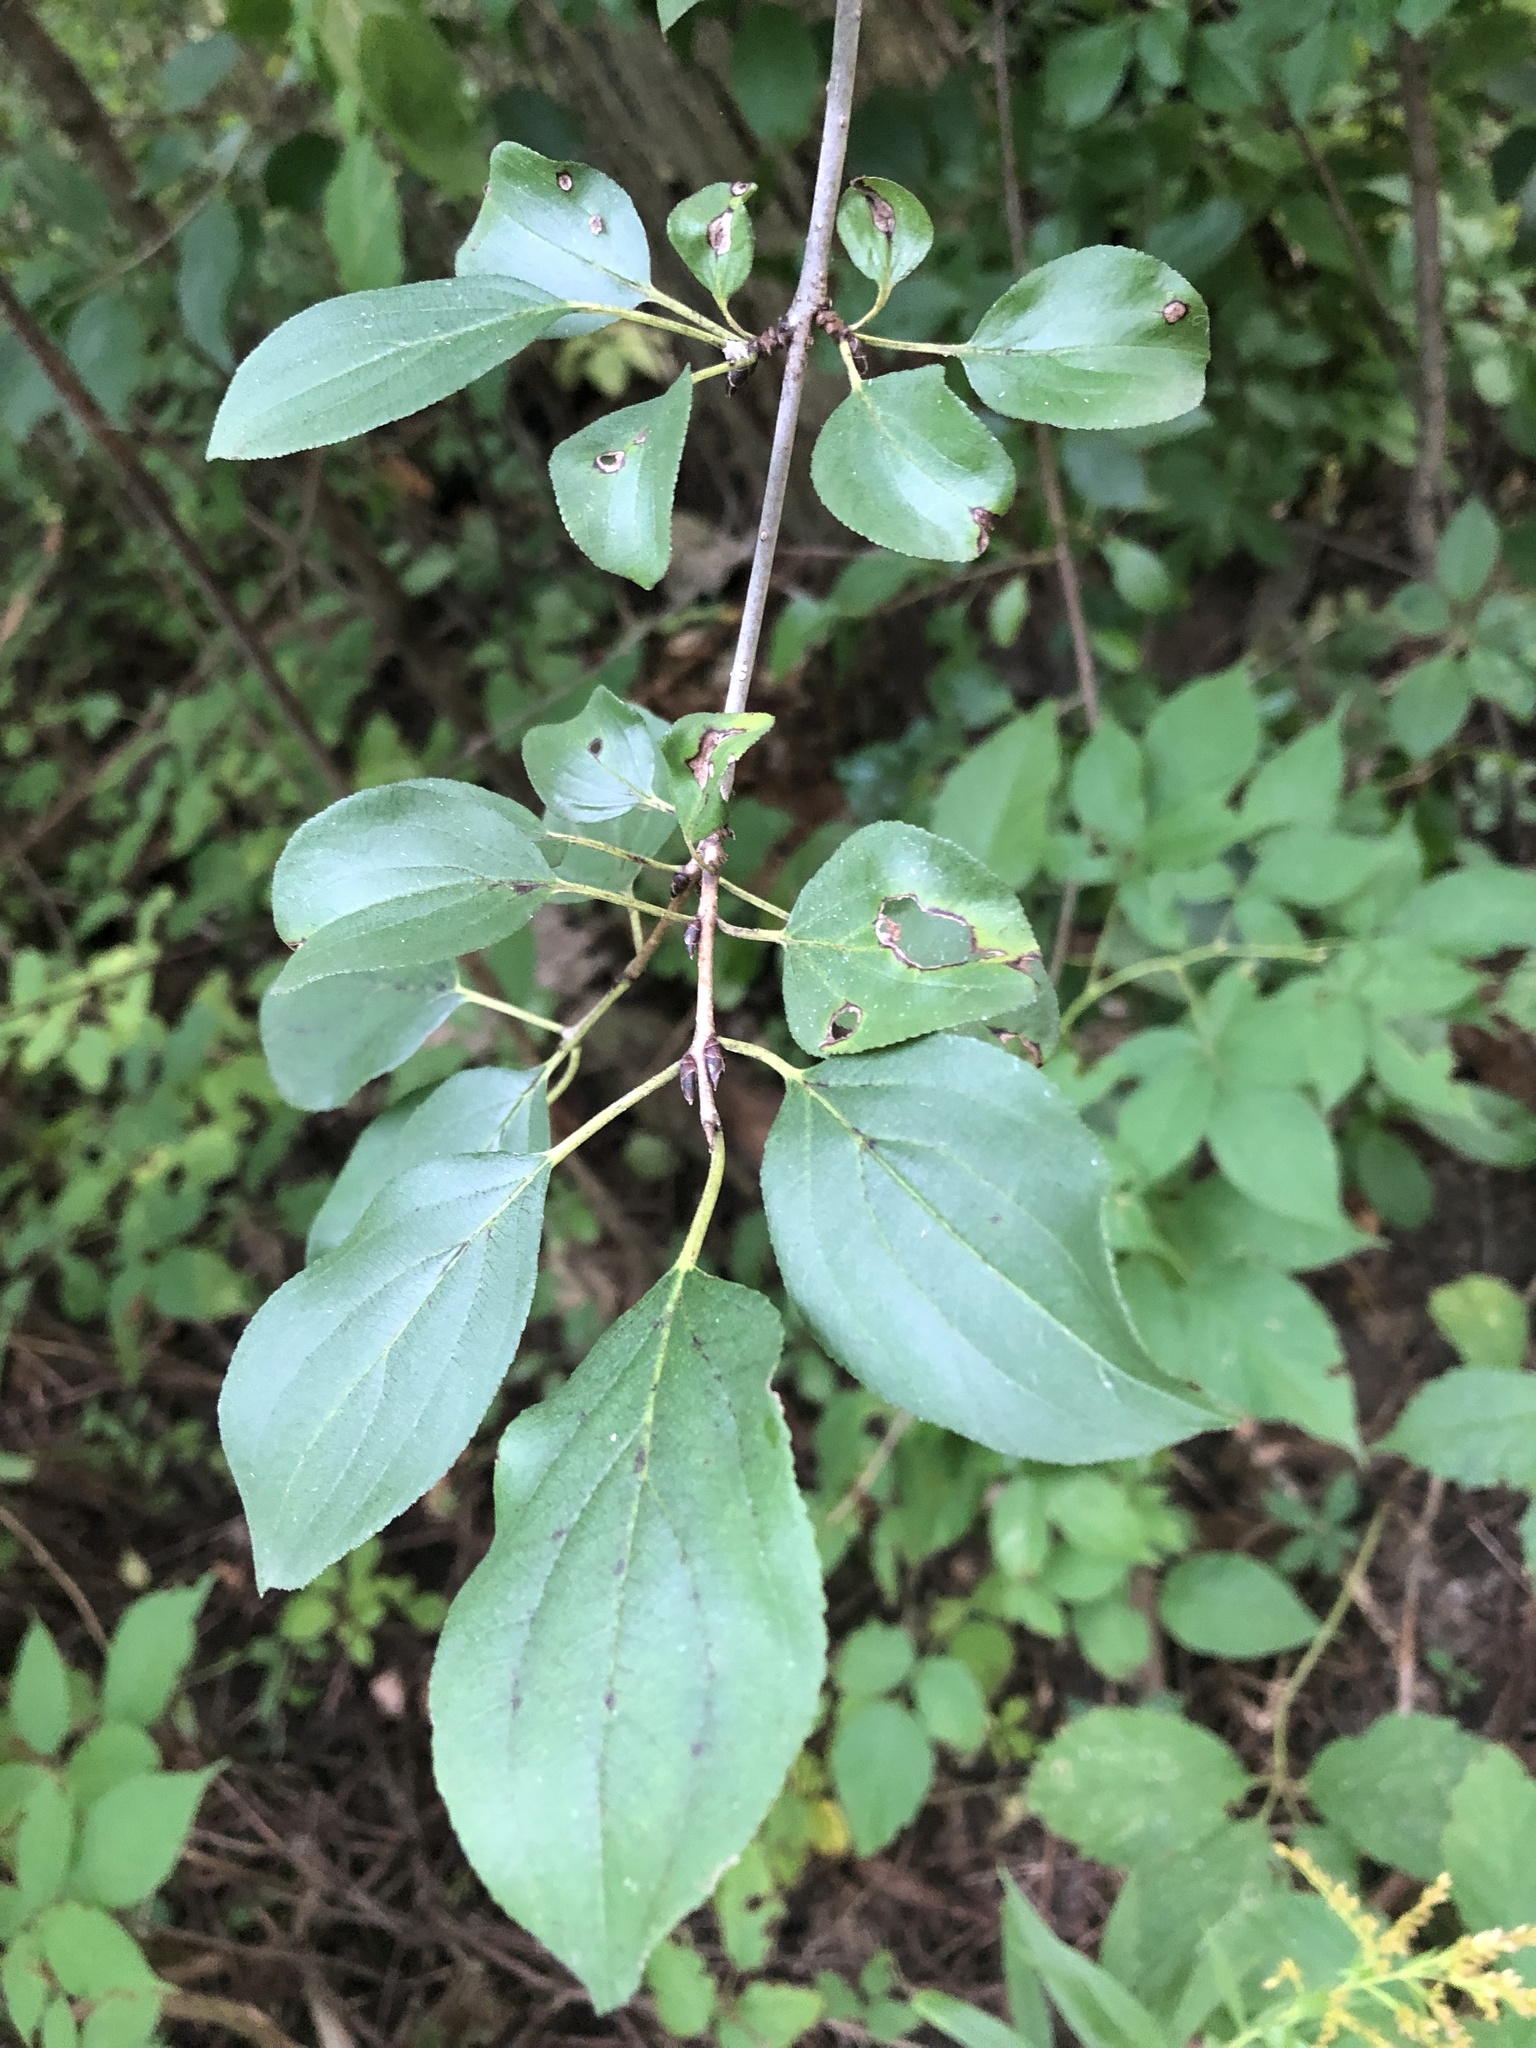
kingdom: Plantae
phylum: Tracheophyta
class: Magnoliopsida
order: Rosales
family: Rhamnaceae
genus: Rhamnus
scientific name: Rhamnus cathartica
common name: Common buckthorn
